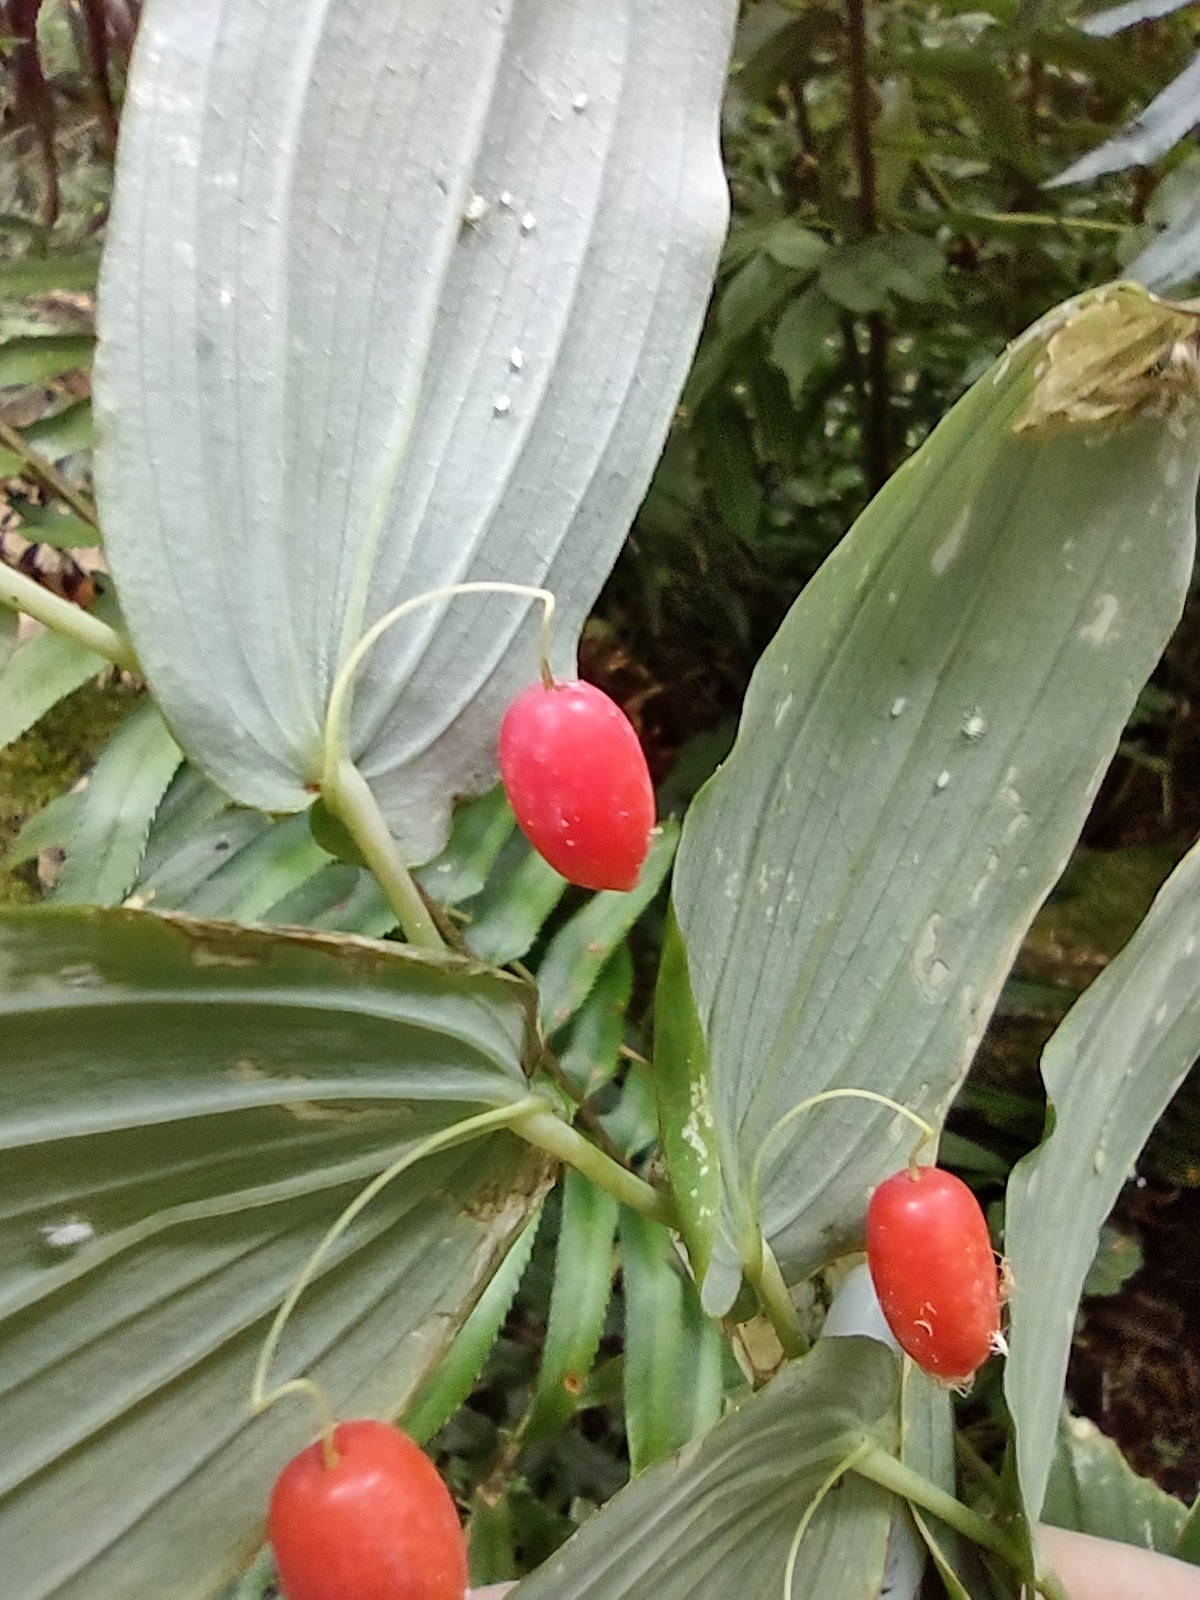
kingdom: Plantae
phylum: Tracheophyta
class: Liliopsida
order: Liliales
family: Liliaceae
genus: Streptopus
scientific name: Streptopus amplexifolius
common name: Clasp twisted stalk
